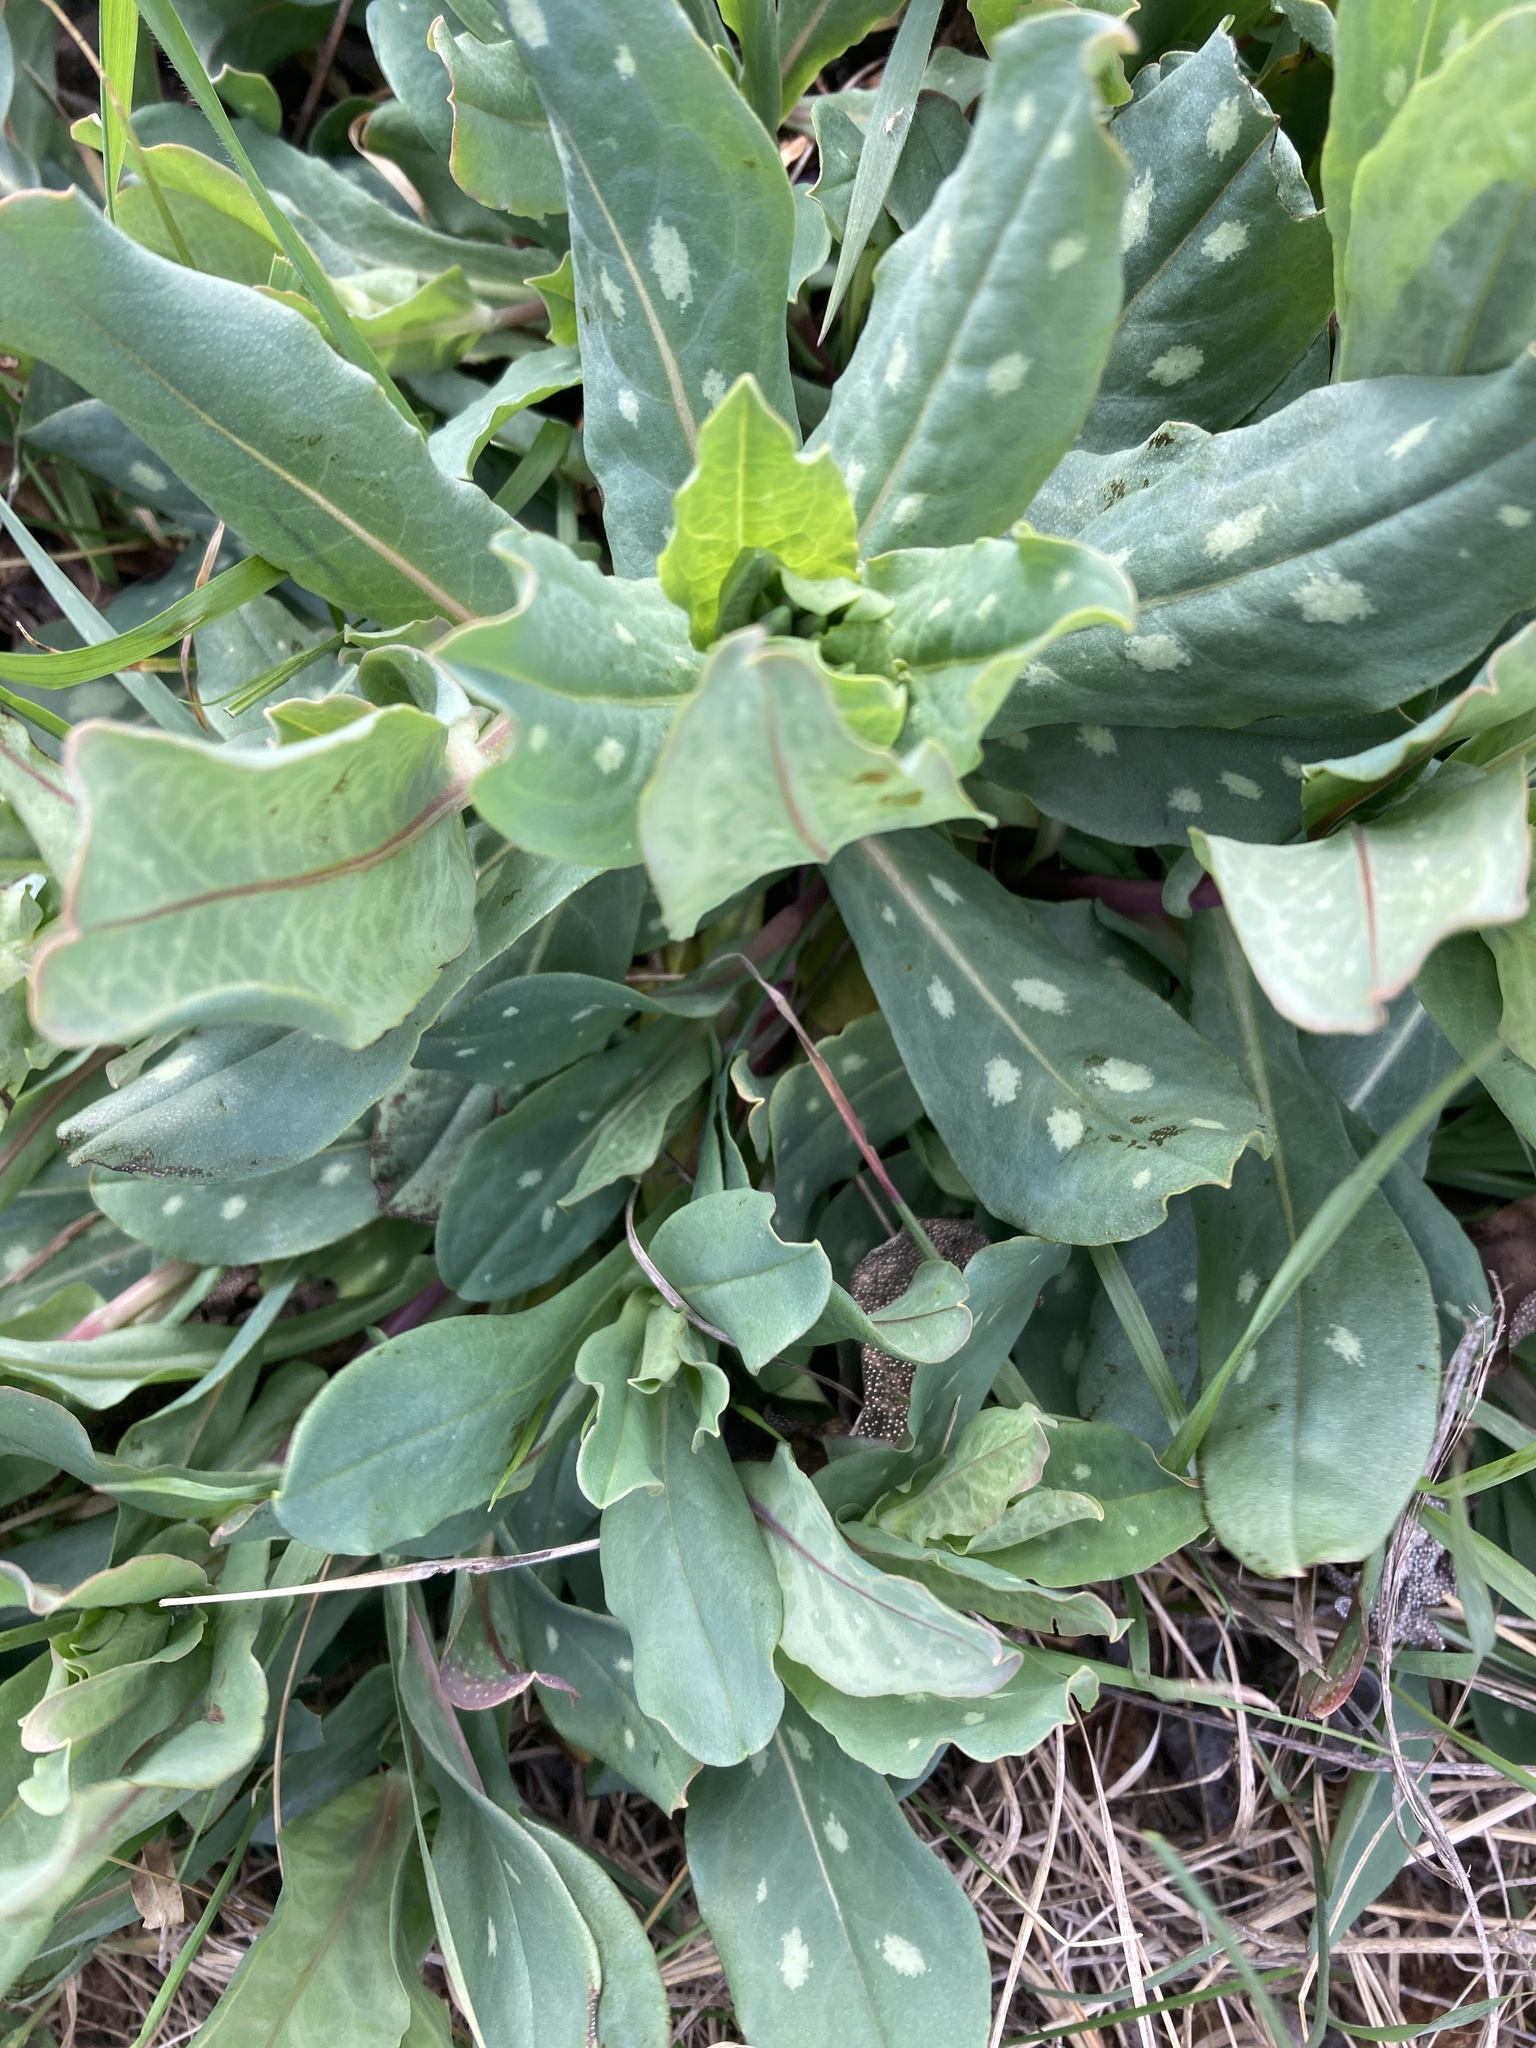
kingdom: Plantae
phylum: Tracheophyta
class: Magnoliopsida
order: Boraginales
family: Boraginaceae
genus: Cerinthe
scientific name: Cerinthe minor
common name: Lesser honeywort
